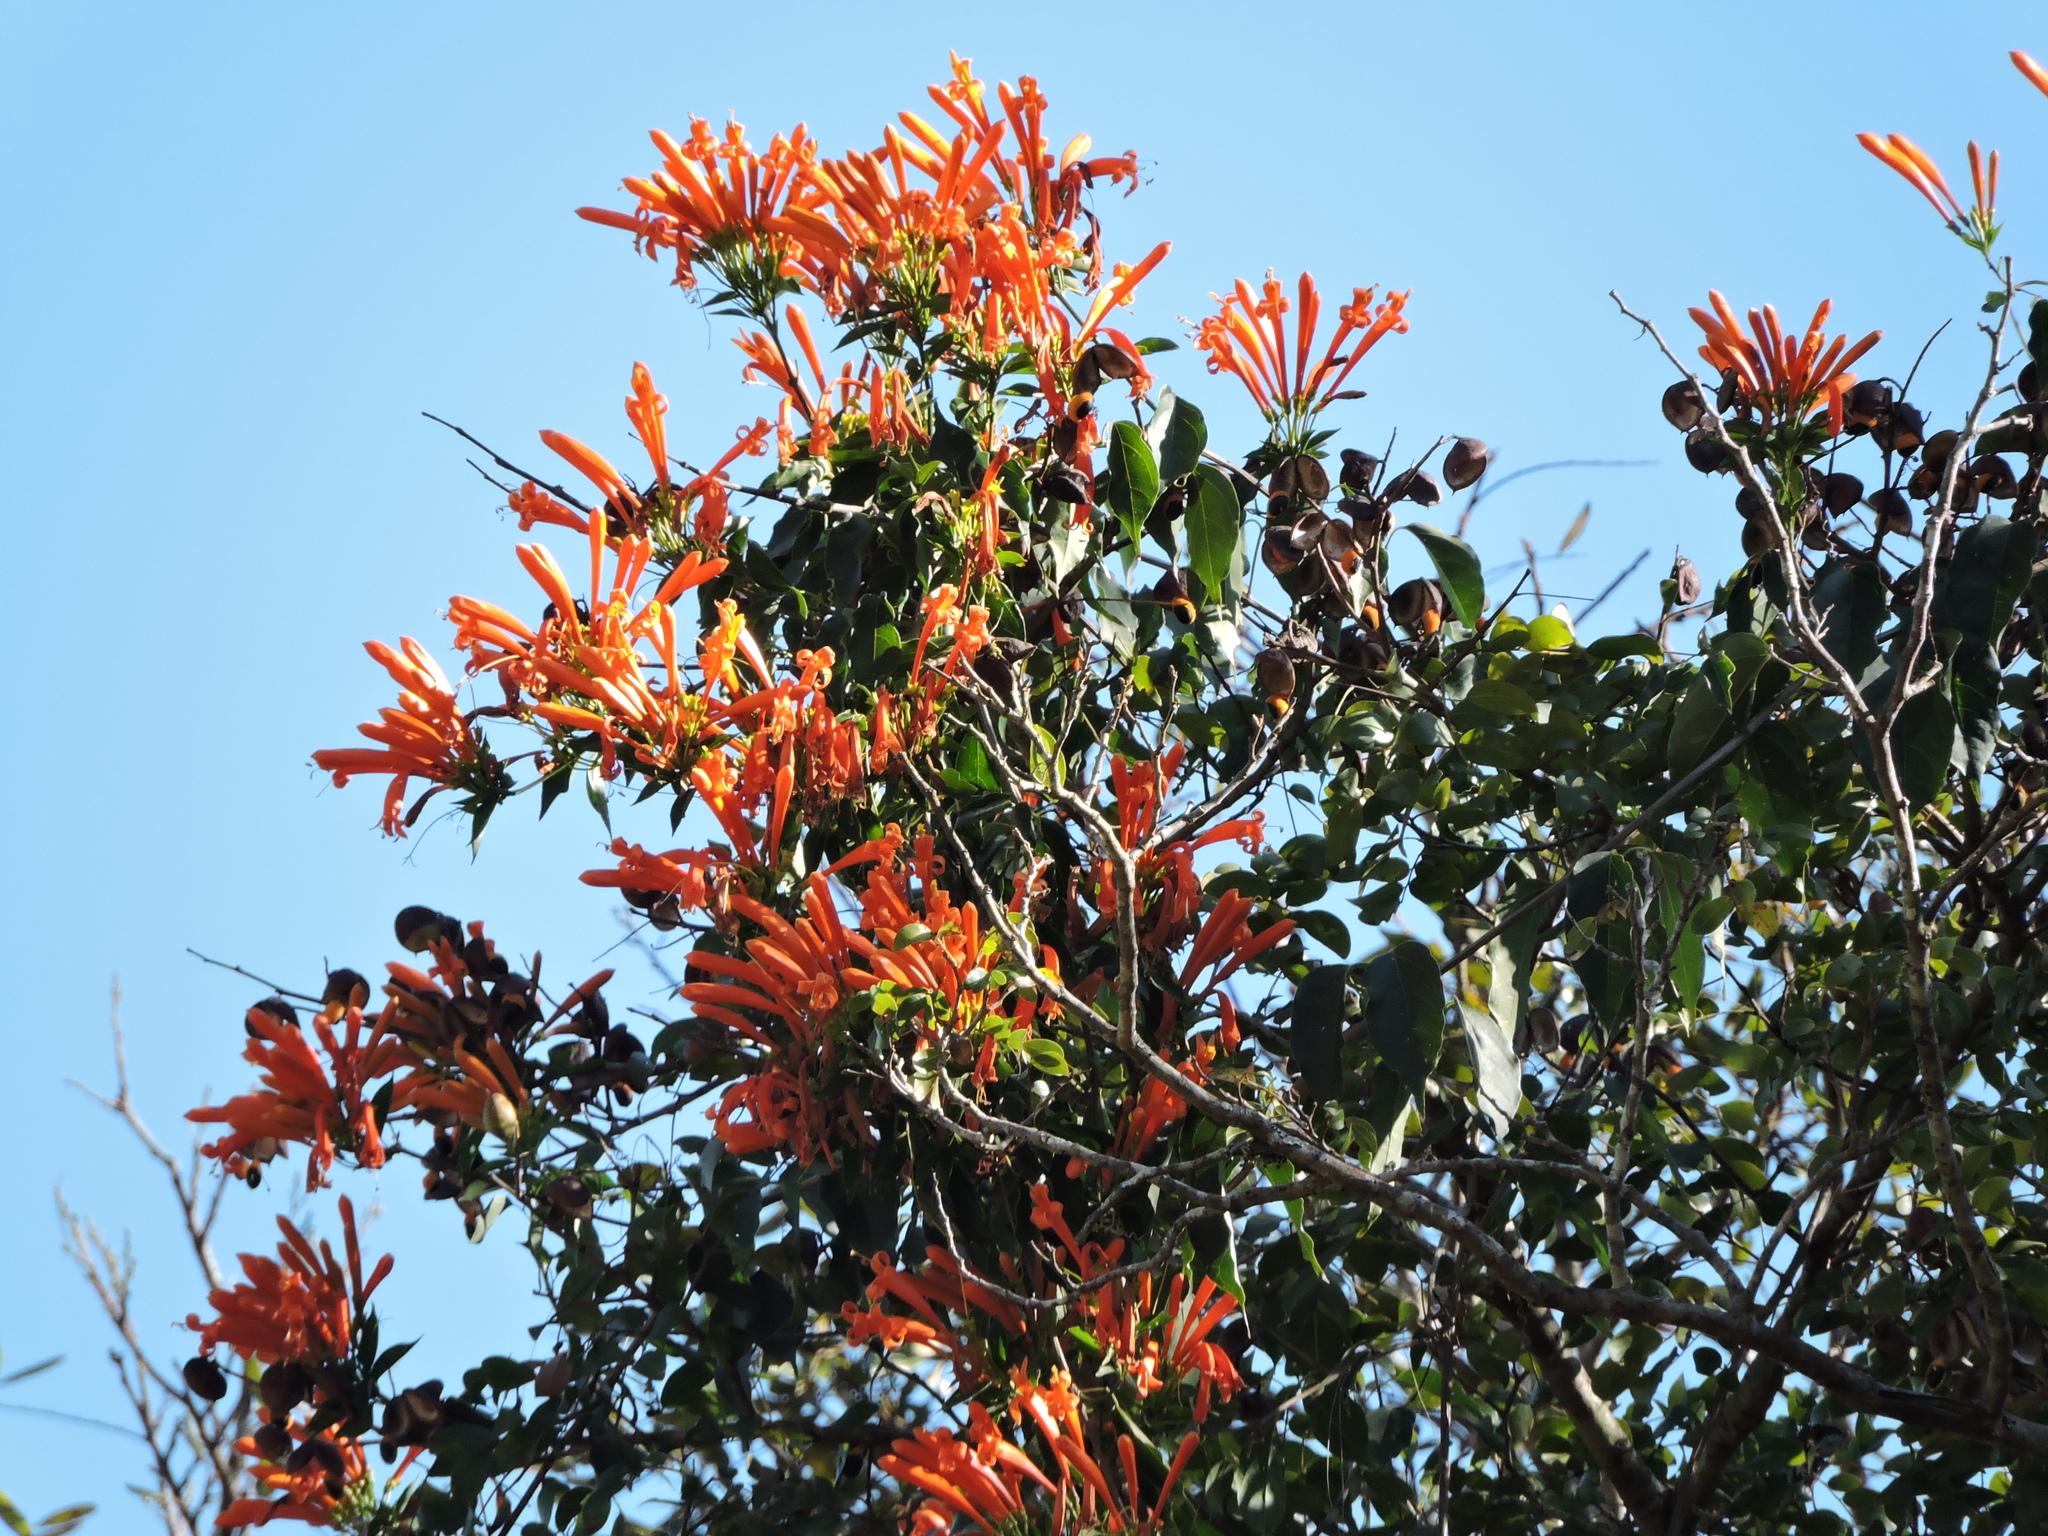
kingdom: Plantae
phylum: Tracheophyta
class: Magnoliopsida
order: Lamiales
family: Bignoniaceae
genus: Pyrostegia
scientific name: Pyrostegia venusta
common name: Flamevine
